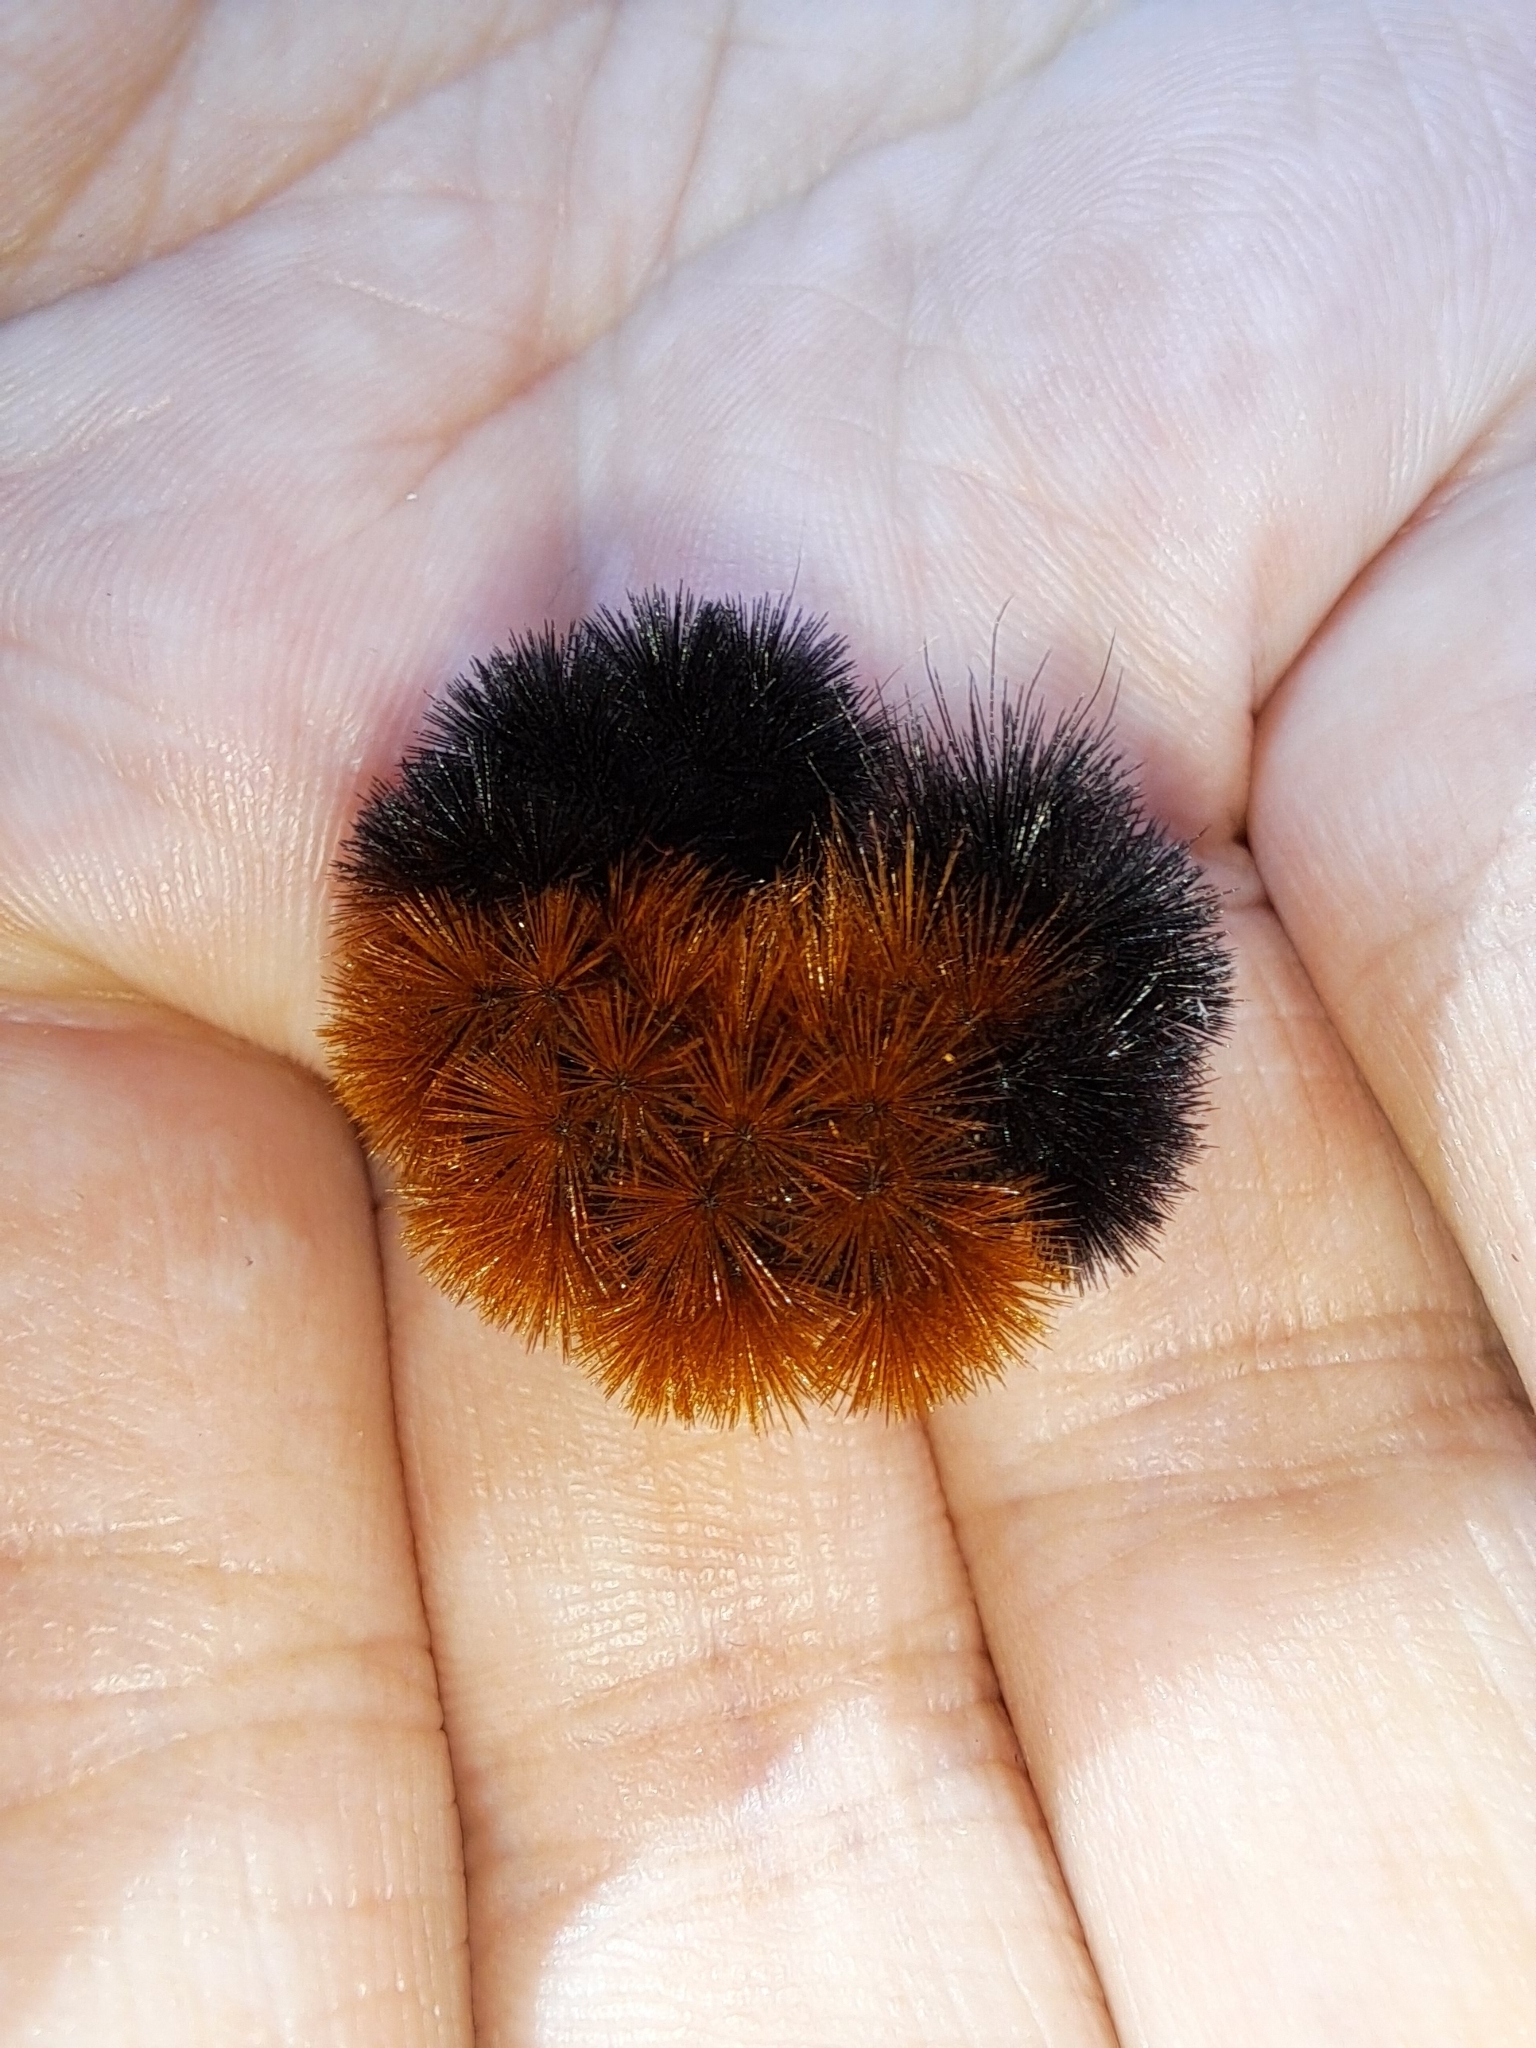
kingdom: Animalia
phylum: Arthropoda
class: Insecta
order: Lepidoptera
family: Erebidae
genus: Pyrrharctia
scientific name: Pyrrharctia isabella
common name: Isabella tiger moth
